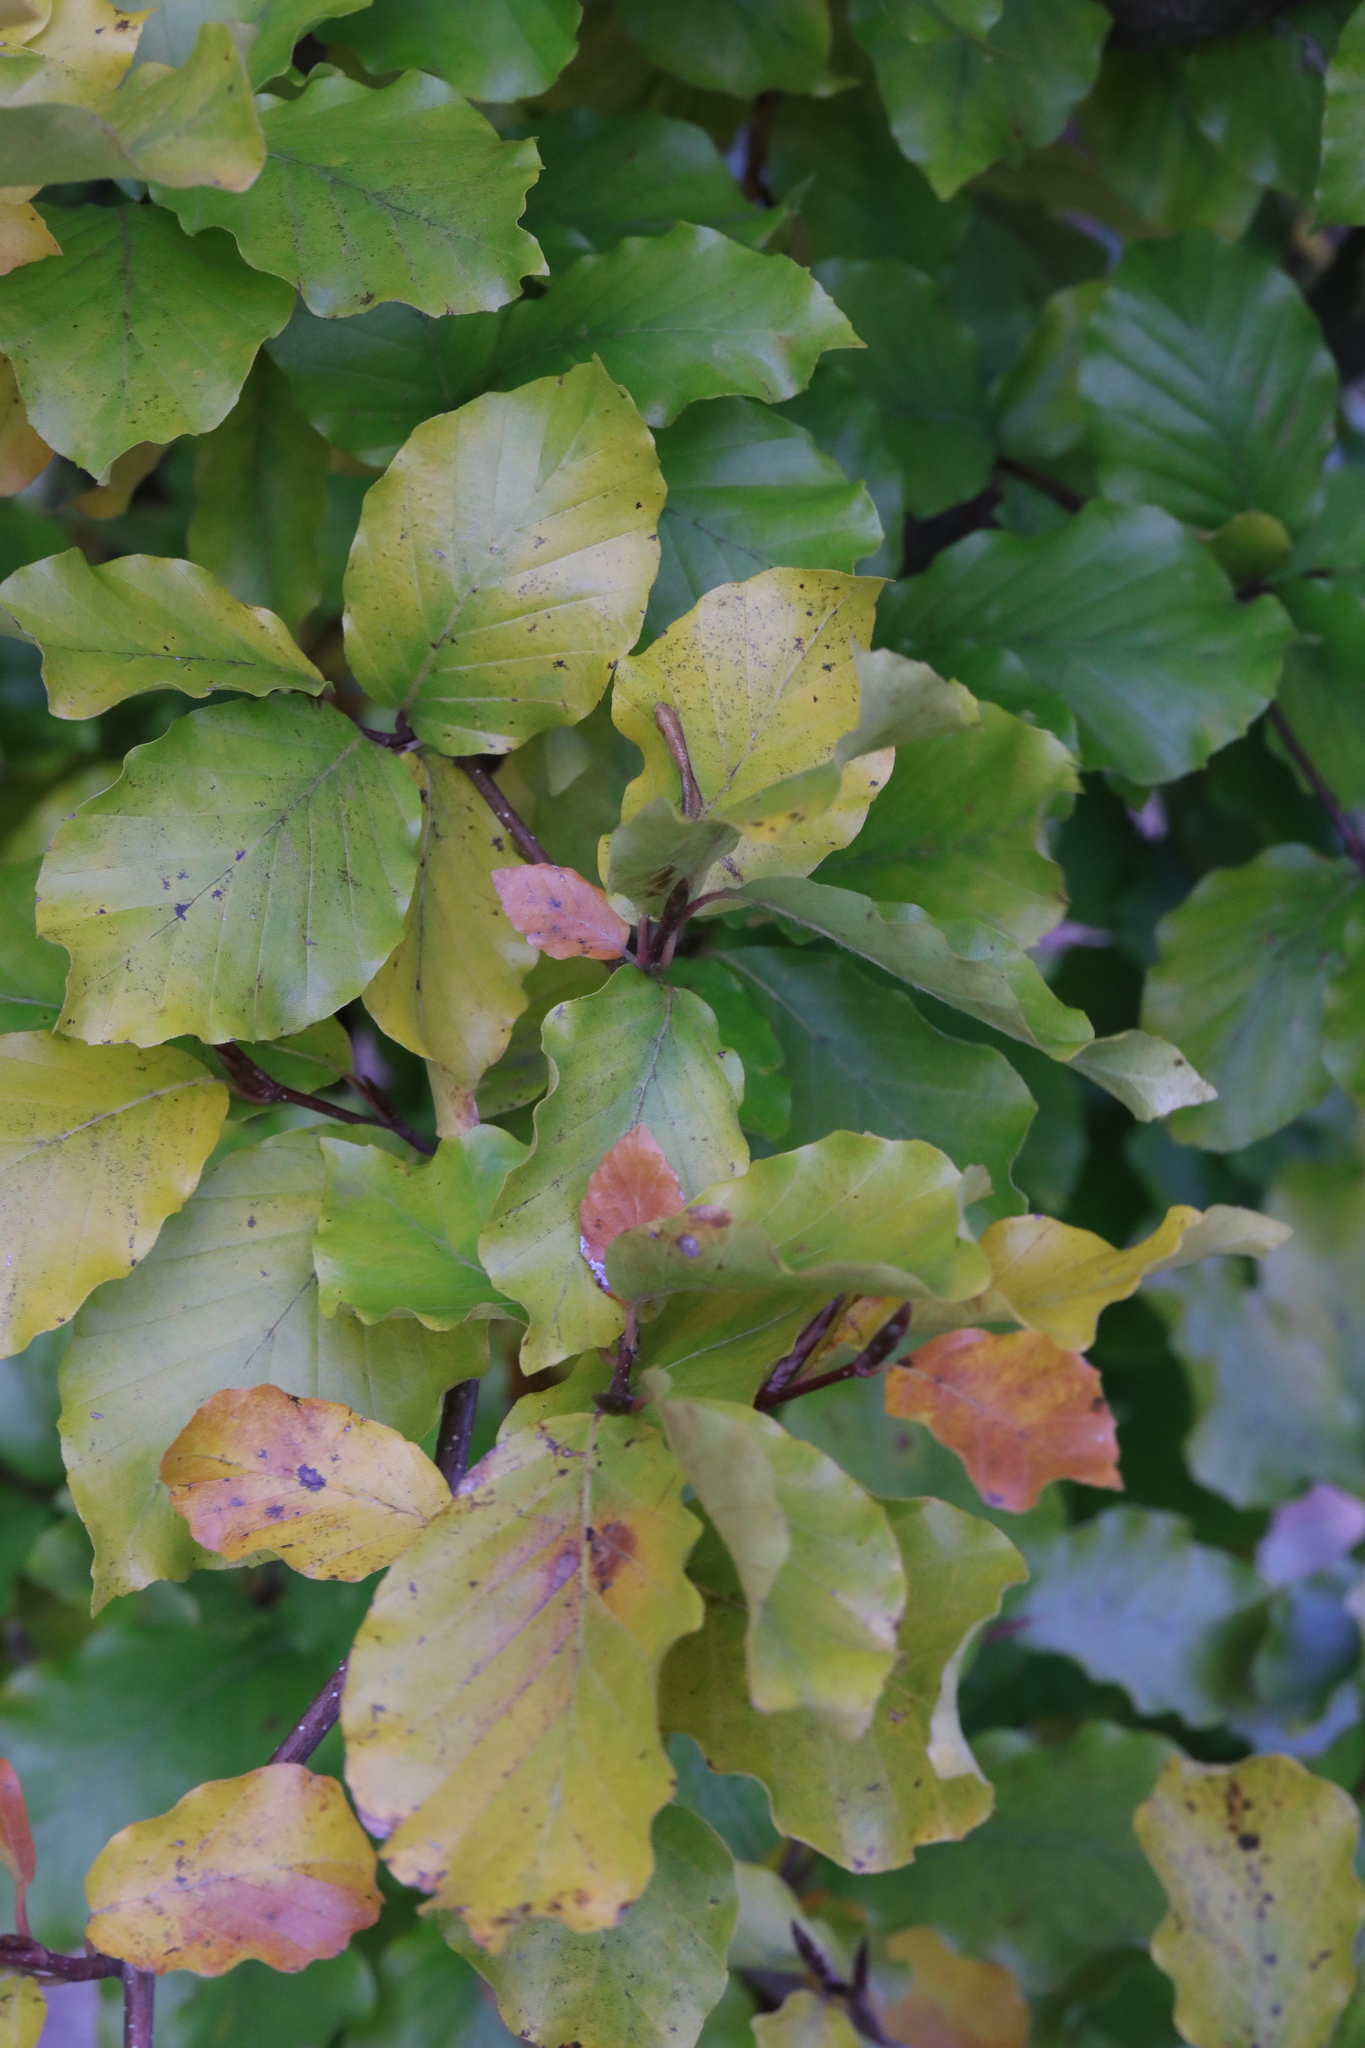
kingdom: Plantae
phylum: Tracheophyta
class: Magnoliopsida
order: Fagales
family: Fagaceae
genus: Fagus
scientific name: Fagus sylvatica
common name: Beech
